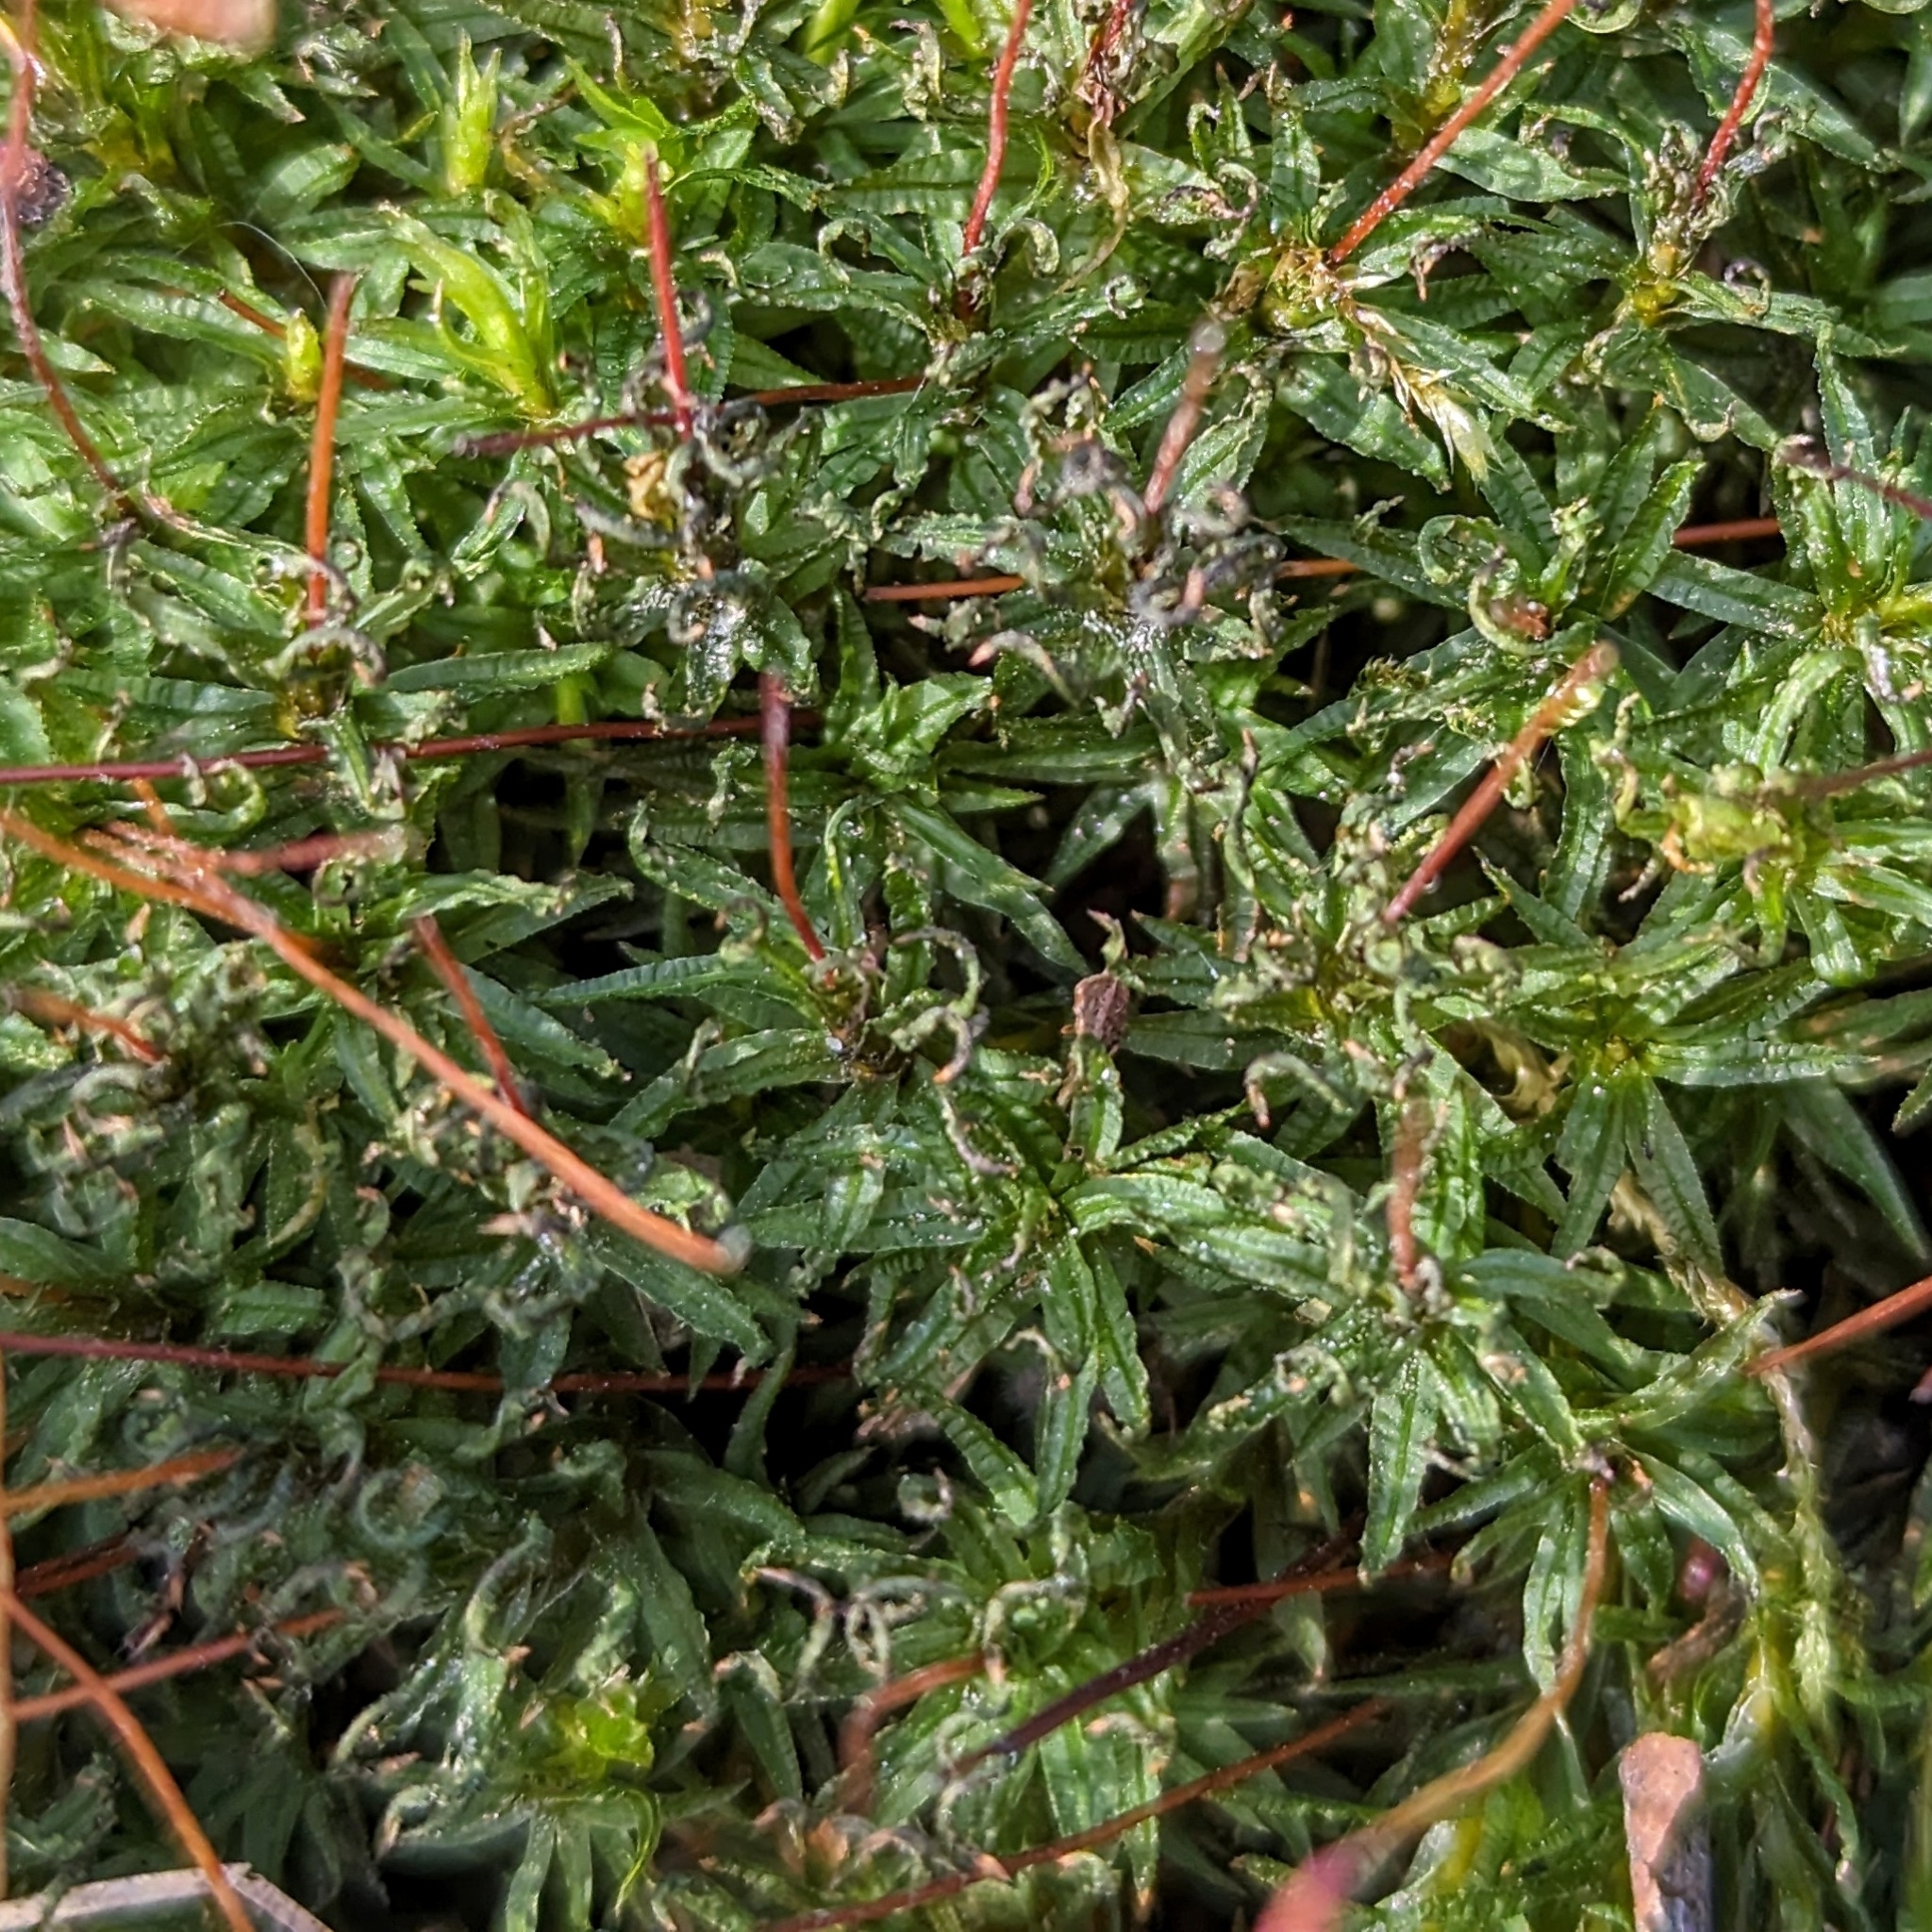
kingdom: Plantae
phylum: Bryophyta
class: Polytrichopsida
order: Polytrichales
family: Polytrichaceae
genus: Atrichum
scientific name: Atrichum
